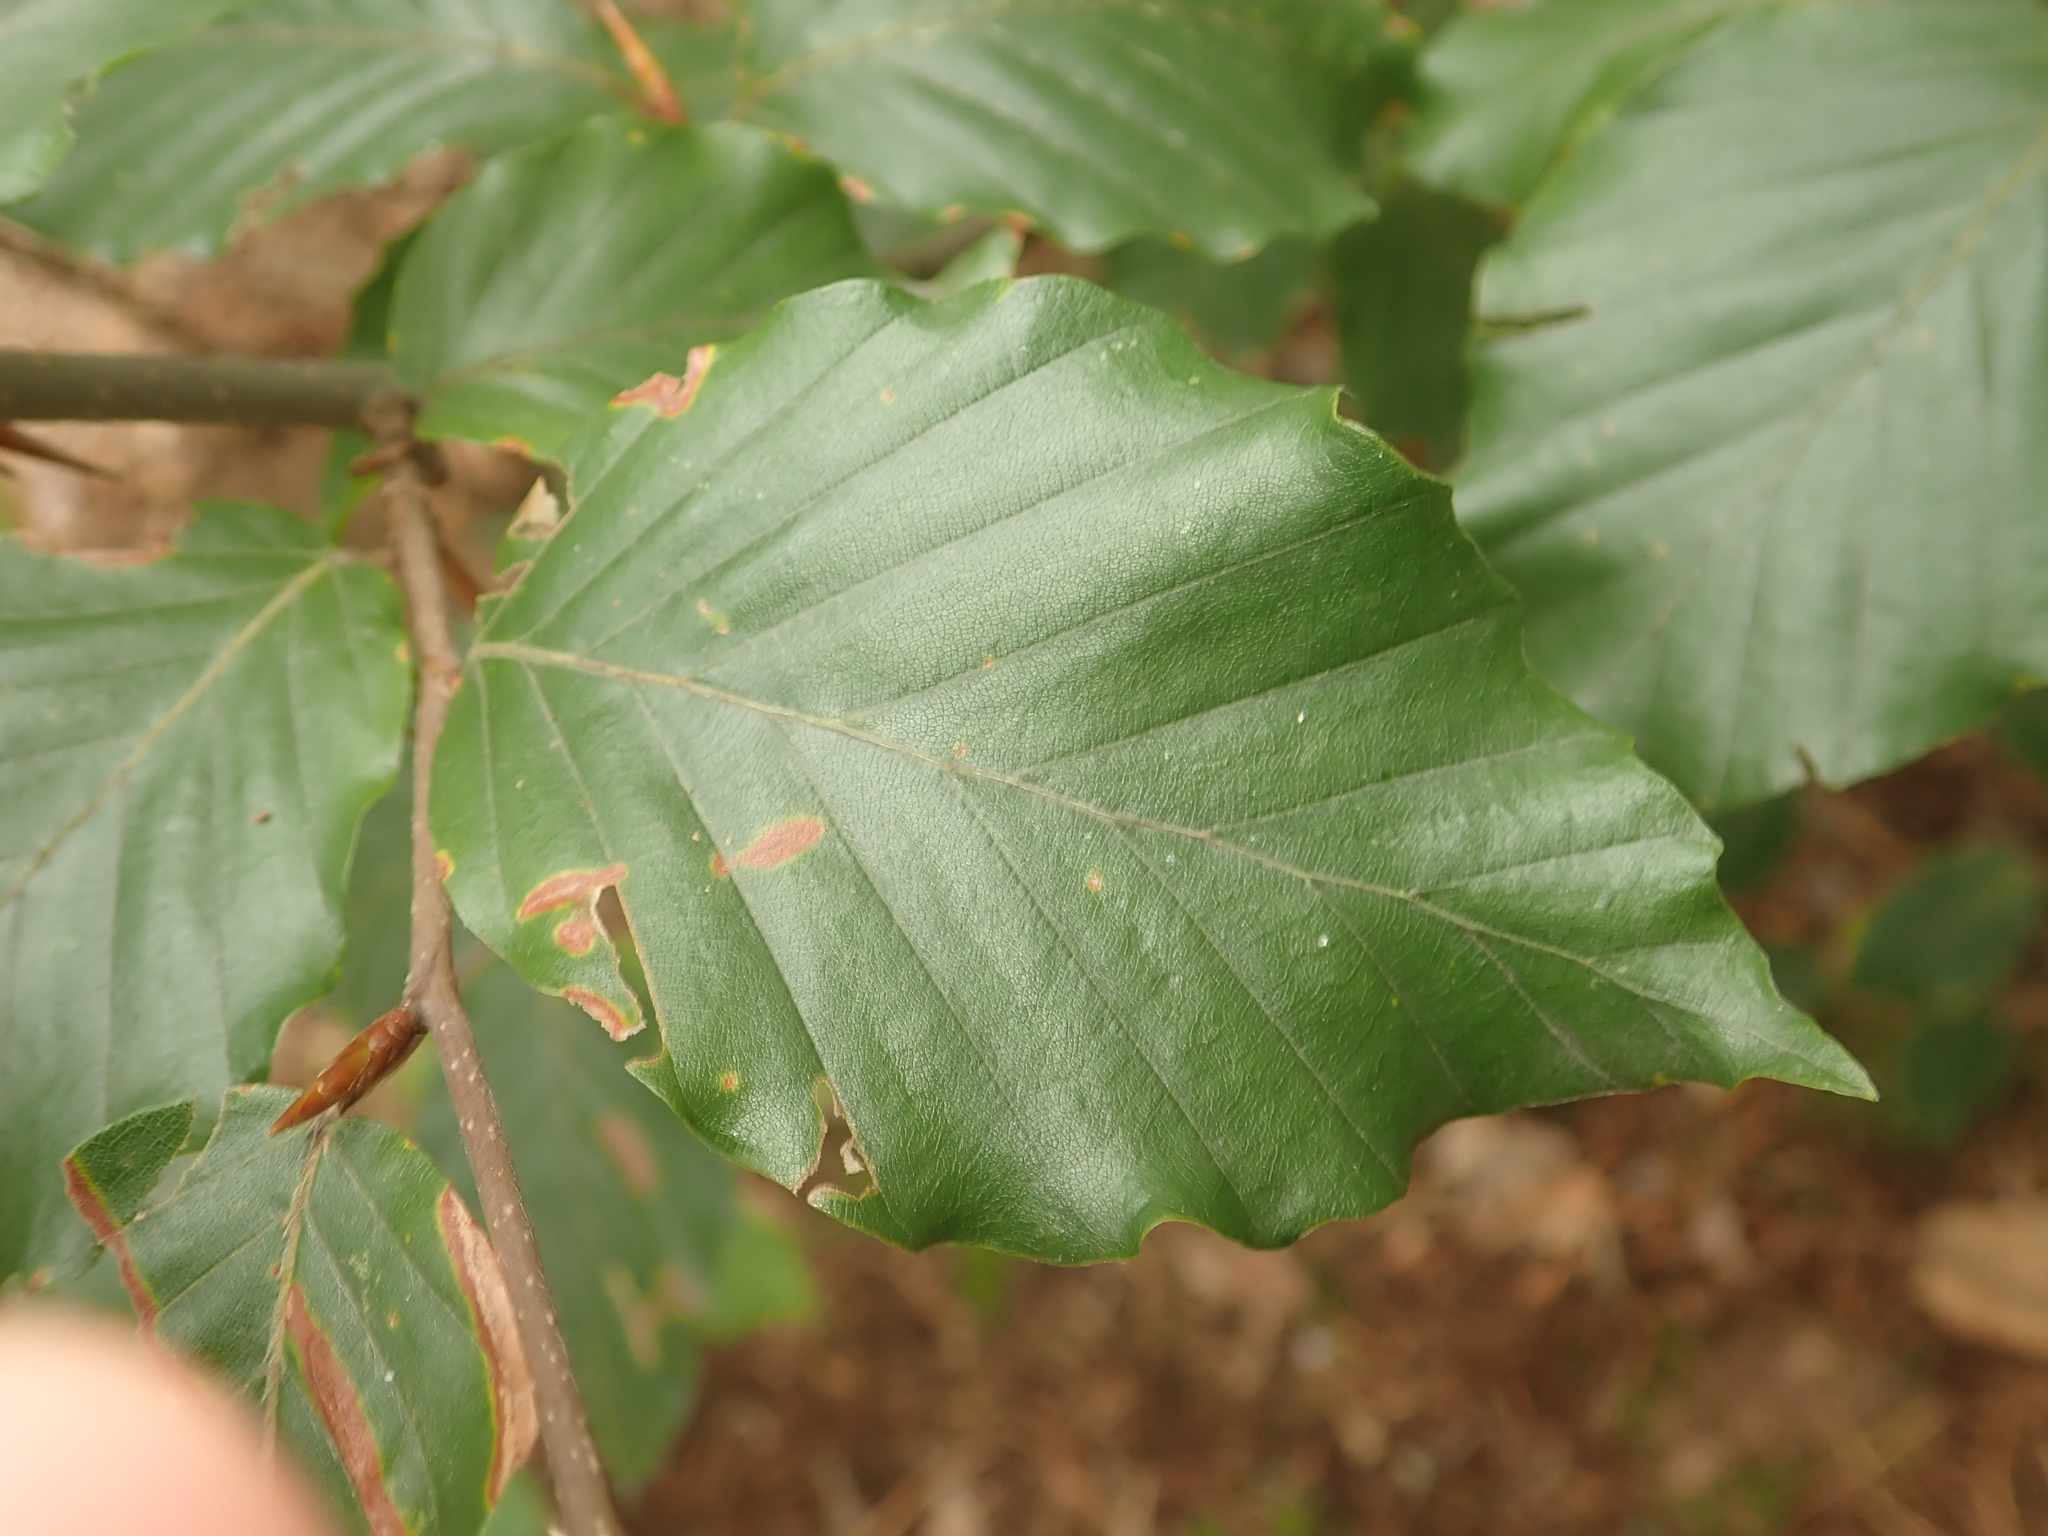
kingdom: Plantae
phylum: Tracheophyta
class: Magnoliopsida
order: Fagales
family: Fagaceae
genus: Fagus
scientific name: Fagus sylvatica
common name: Beech
